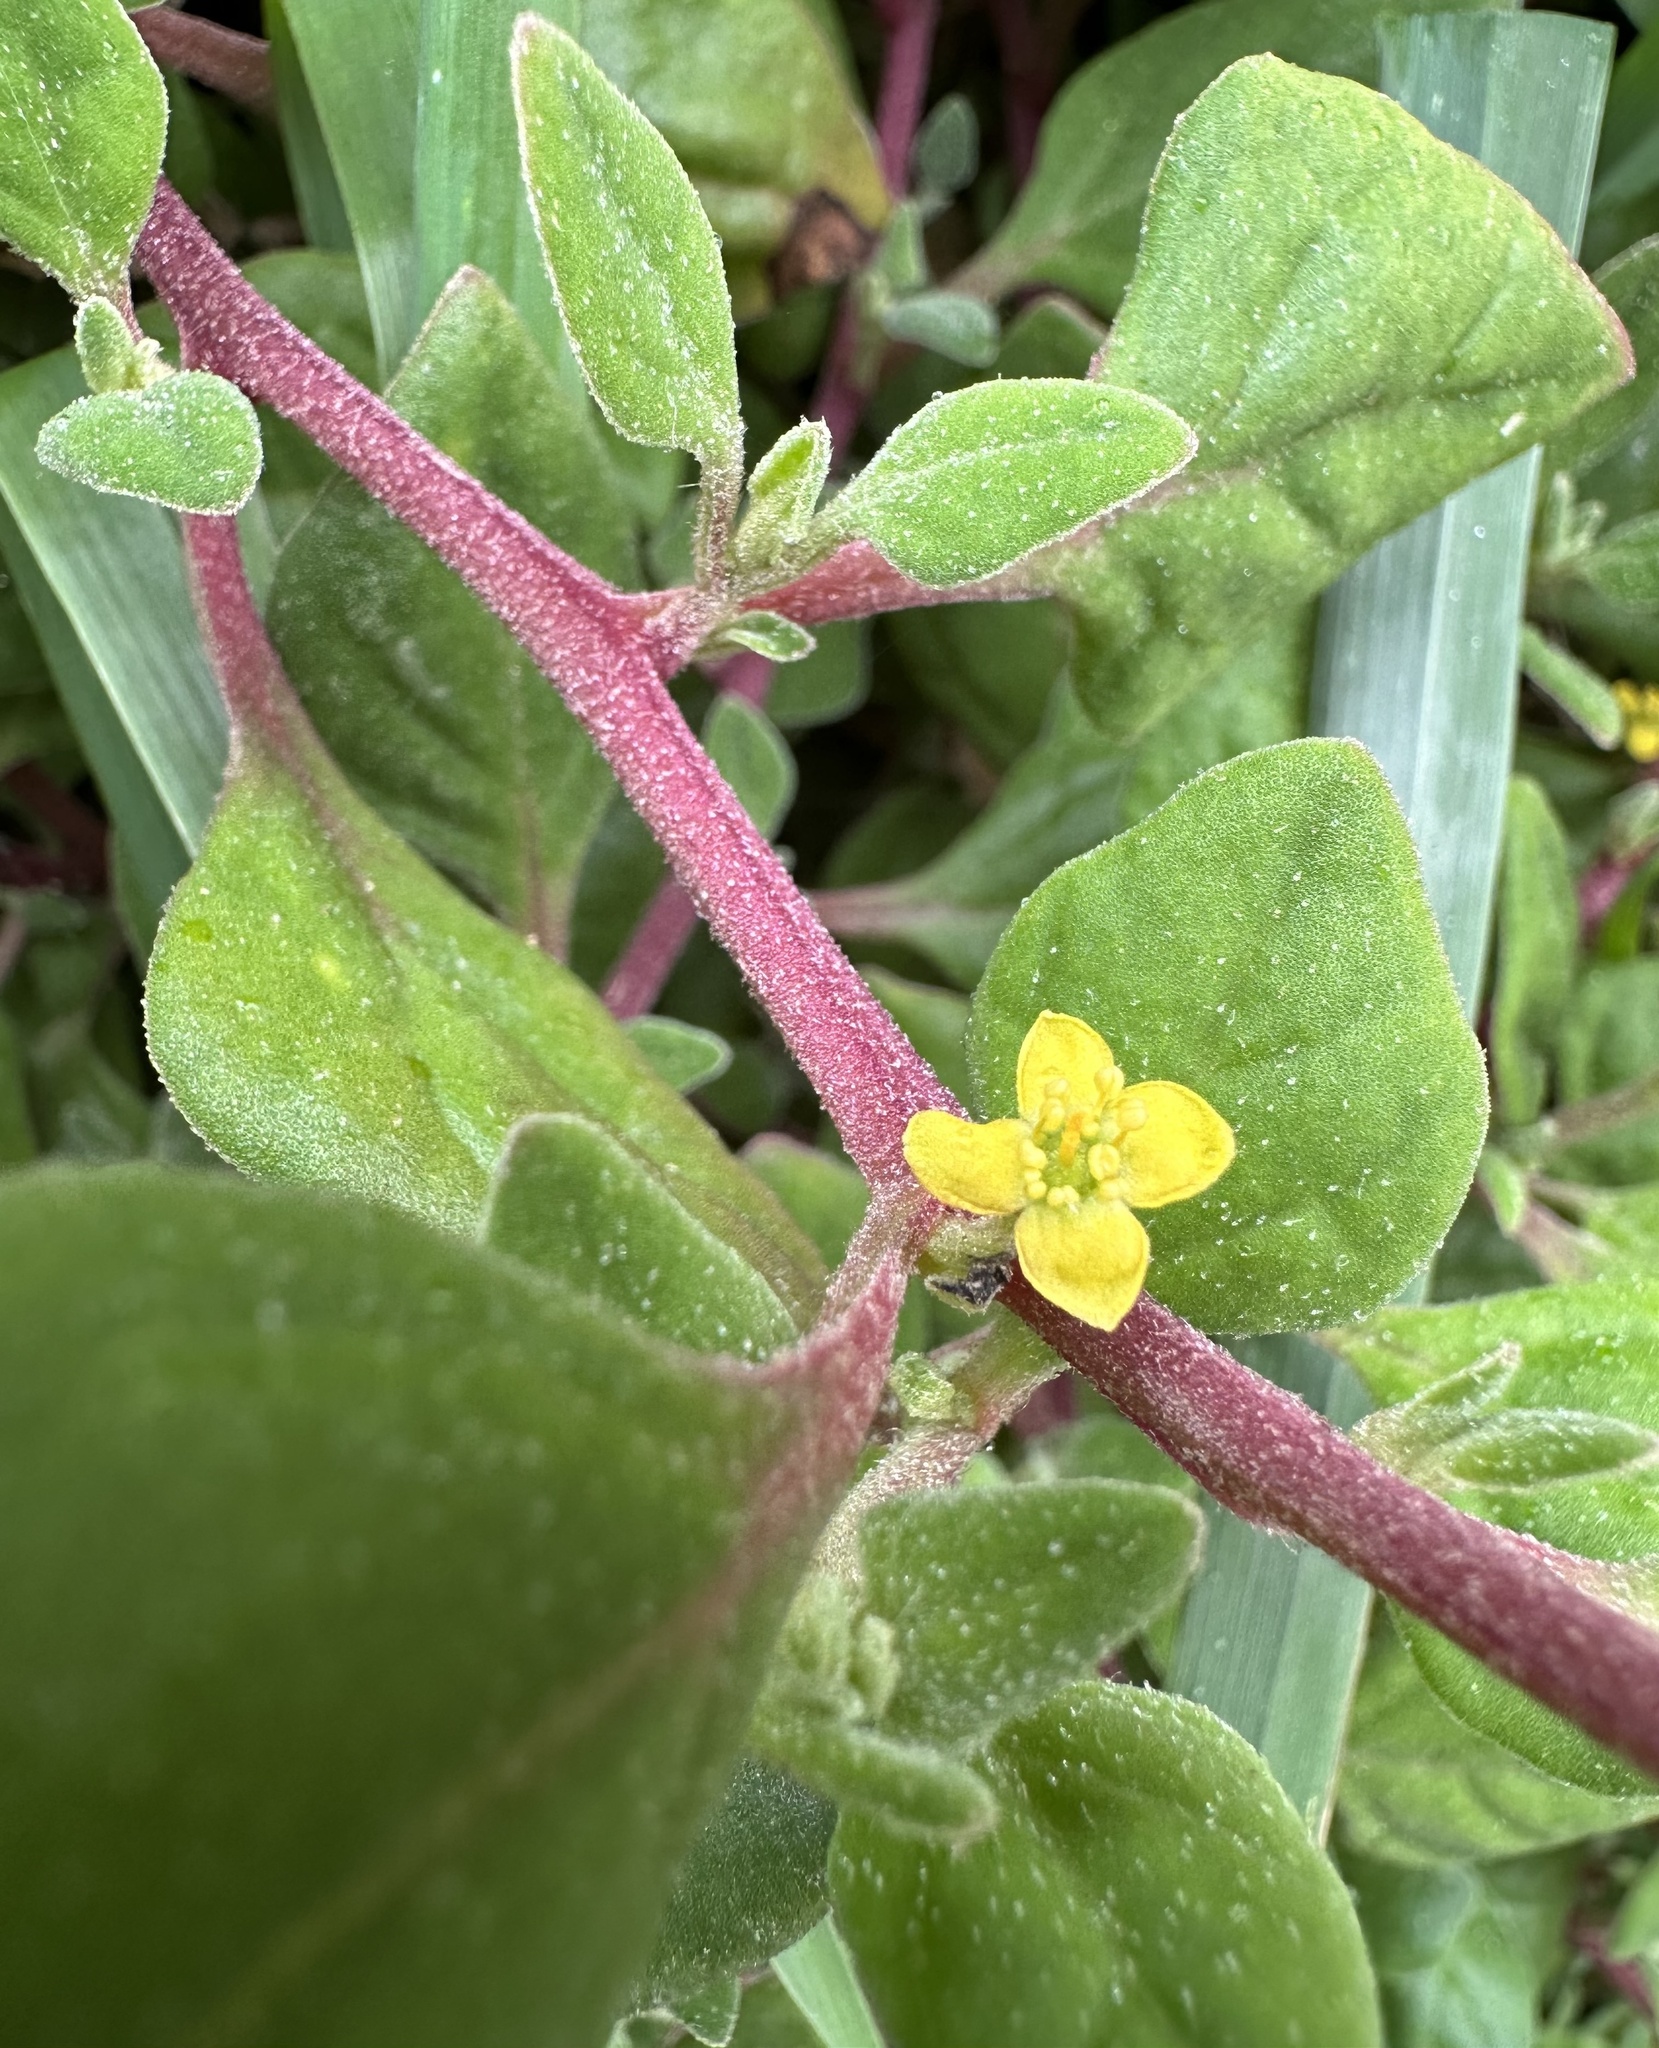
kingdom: Plantae
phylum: Tracheophyta
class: Magnoliopsida
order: Caryophyllales
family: Aizoaceae
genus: Tetragonia
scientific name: Tetragonia implexicoma
